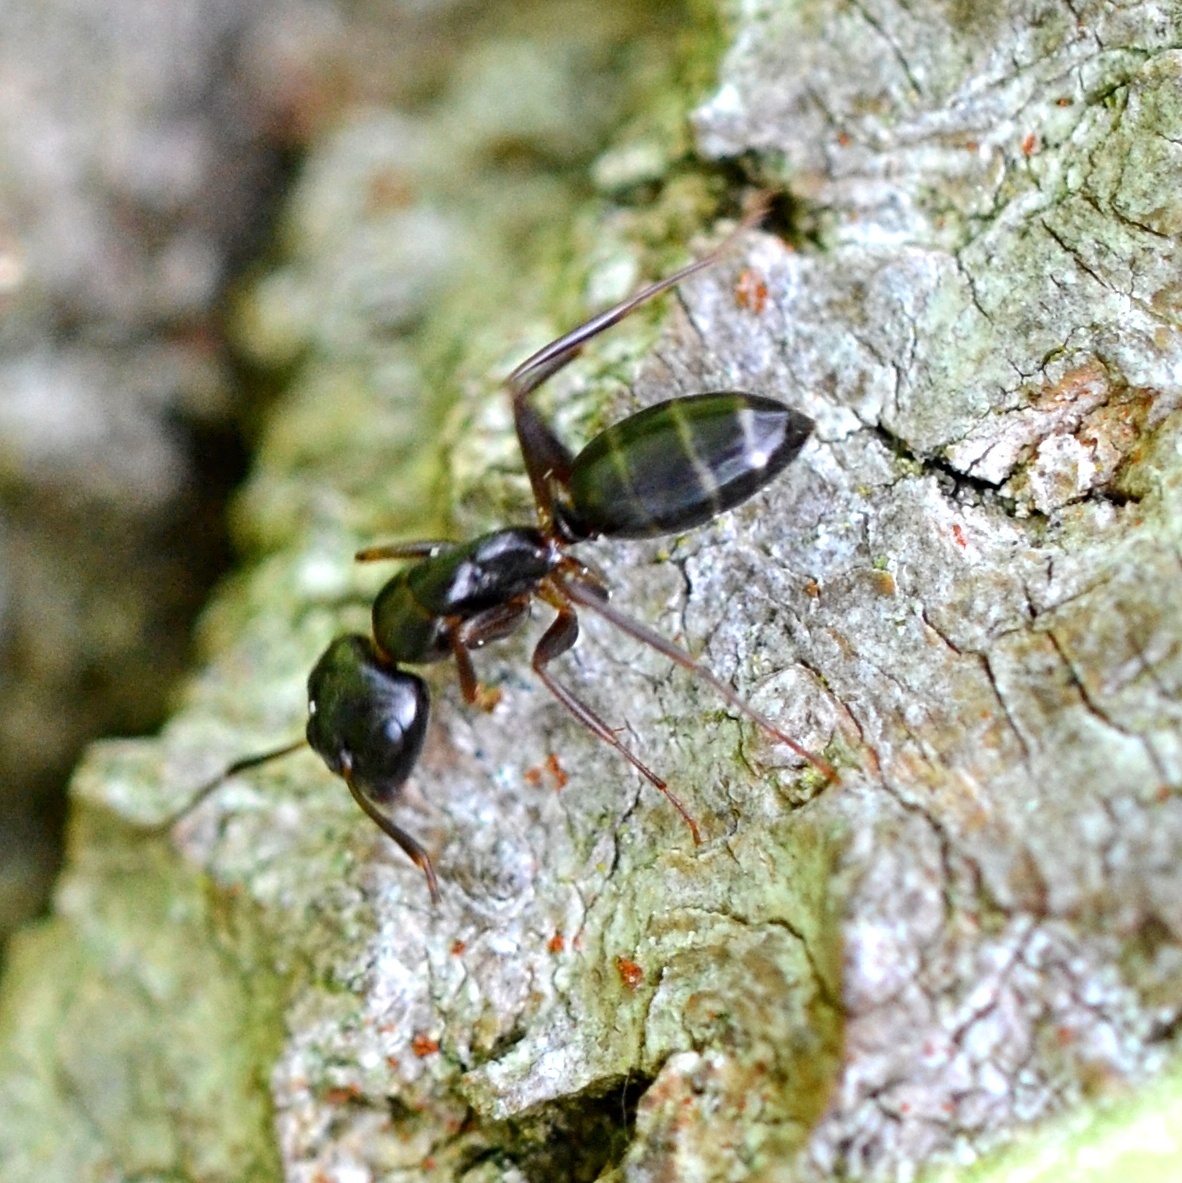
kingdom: Animalia
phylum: Arthropoda
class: Insecta
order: Hymenoptera
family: Formicidae
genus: Camponotus
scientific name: Camponotus fallax
